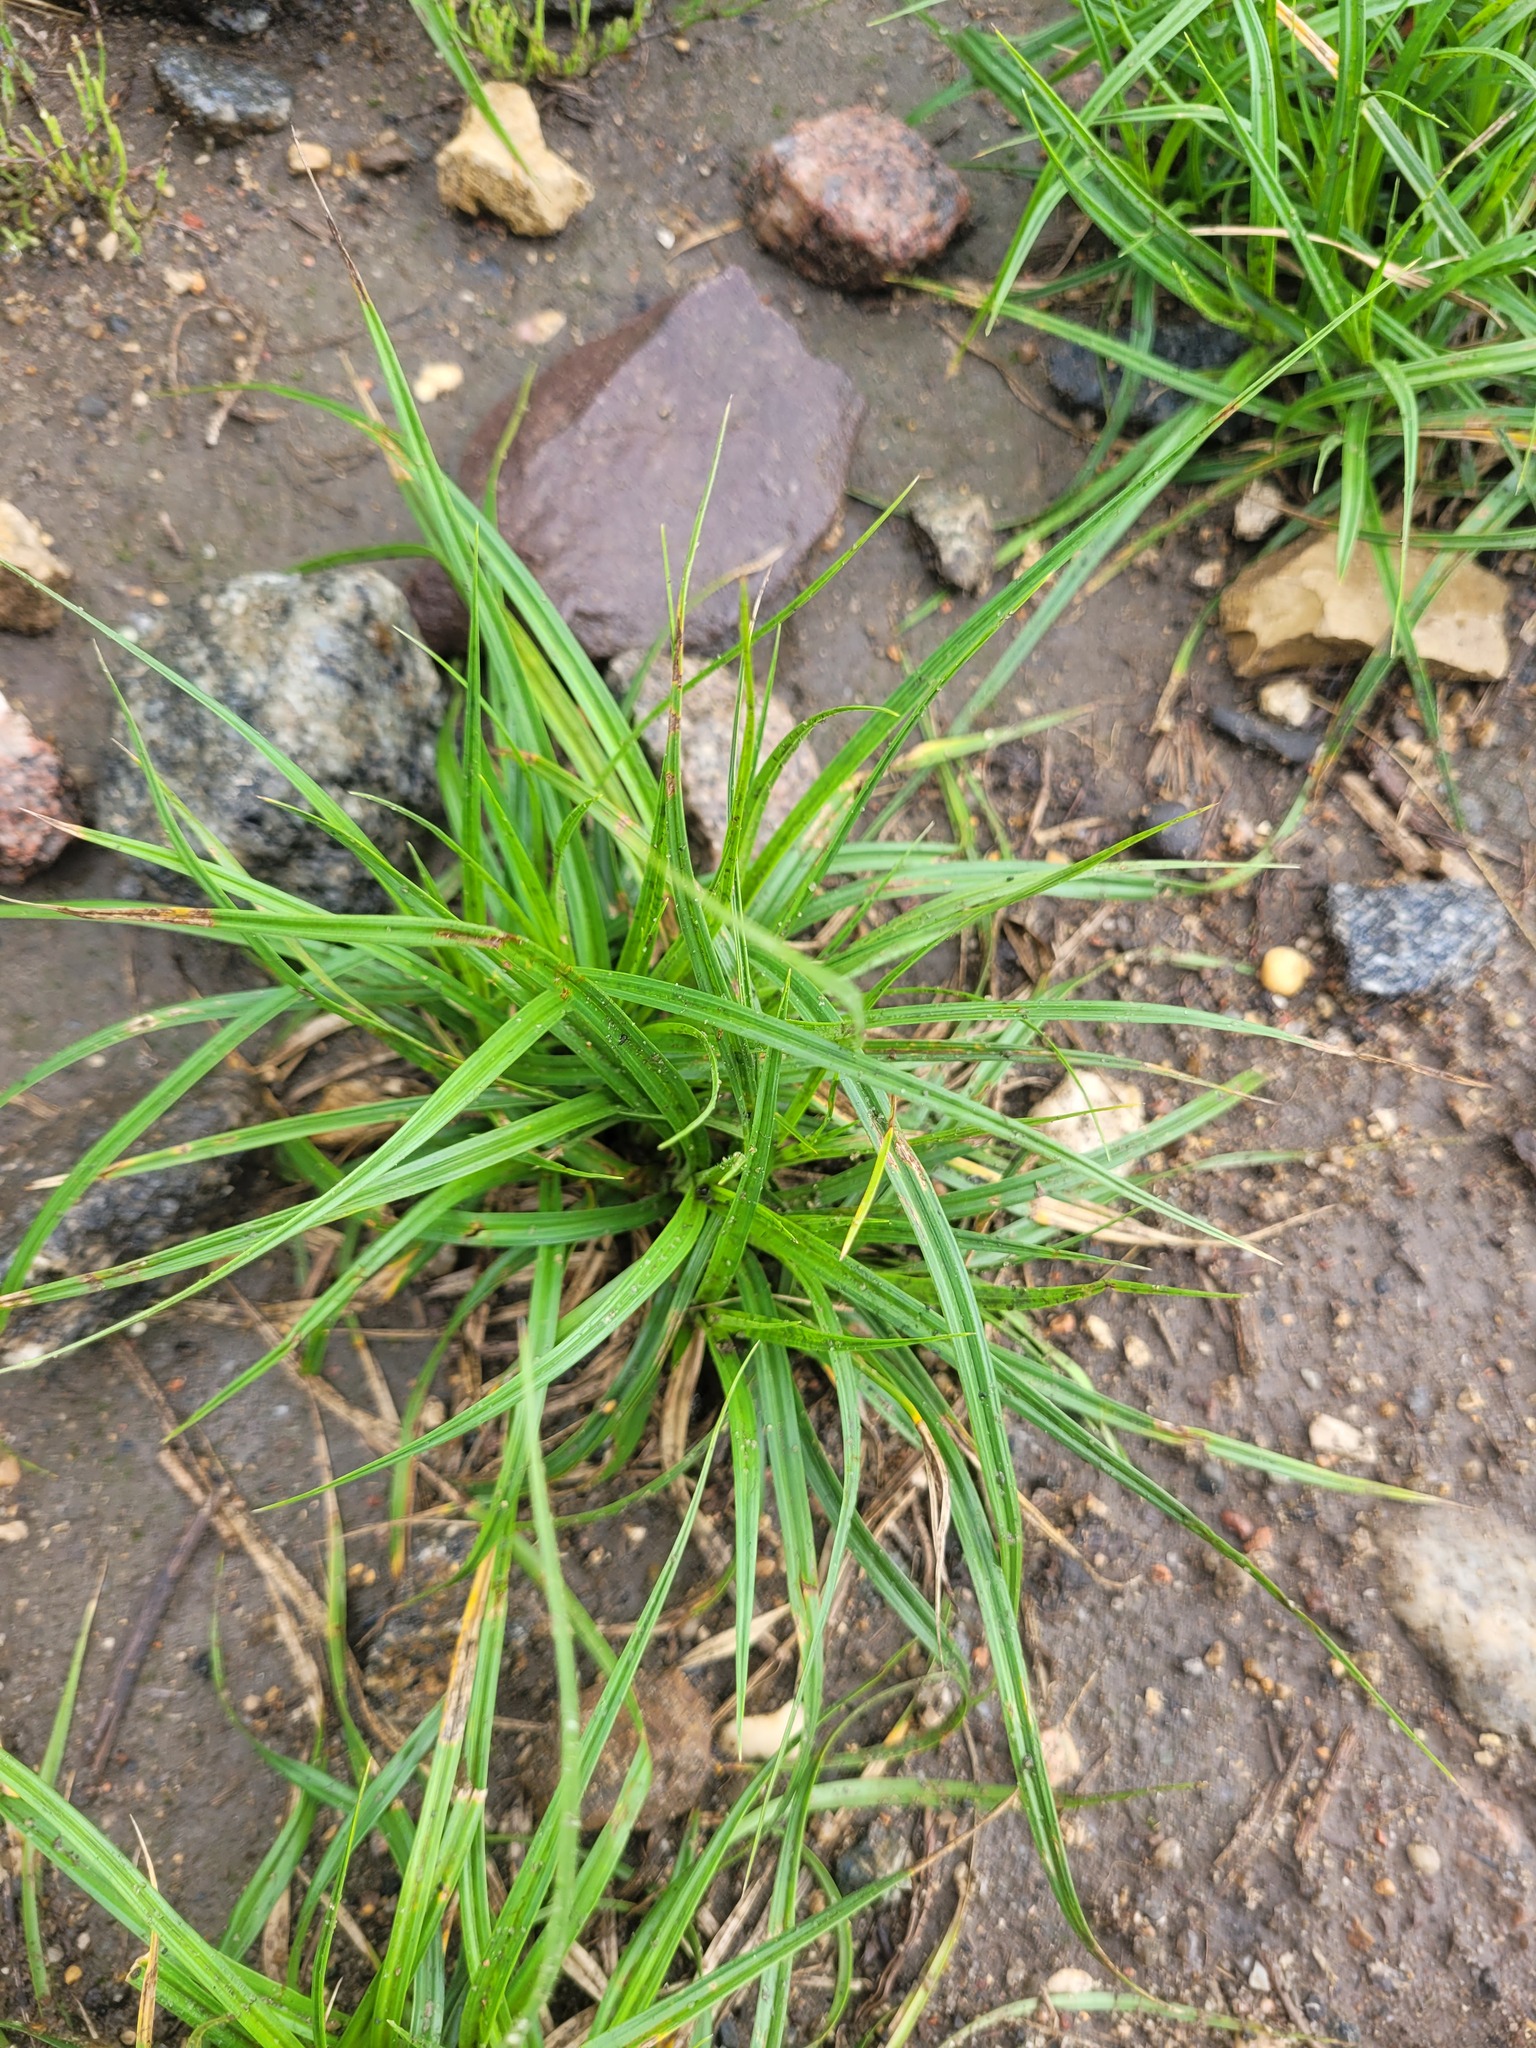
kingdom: Plantae
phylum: Tracheophyta
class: Liliopsida
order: Poales
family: Cyperaceae
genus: Carex
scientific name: Carex hirta
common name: Hairy sedge
